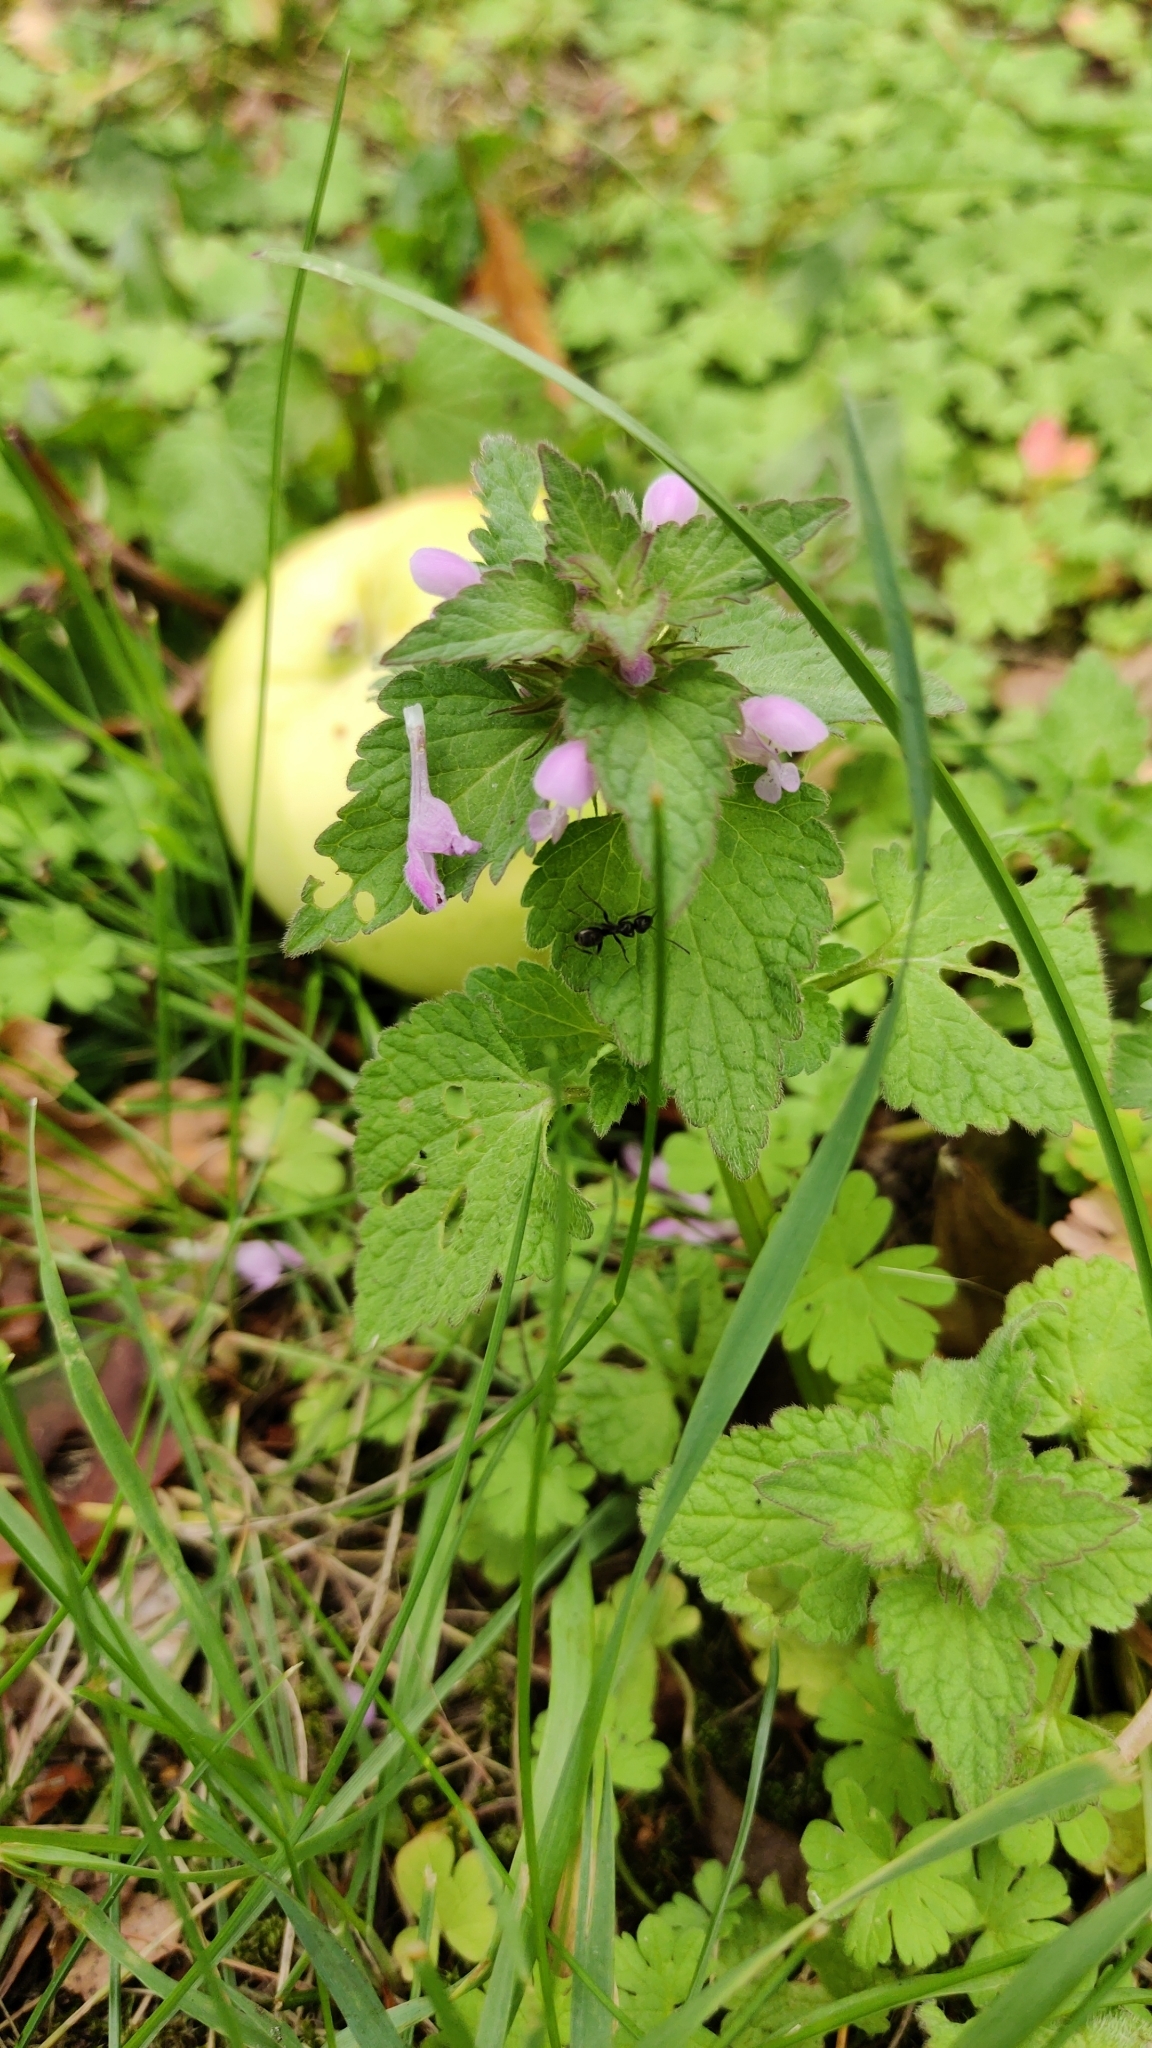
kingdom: Plantae
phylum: Tracheophyta
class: Magnoliopsida
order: Lamiales
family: Lamiaceae
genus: Lamium
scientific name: Lamium purpureum
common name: Red dead-nettle
